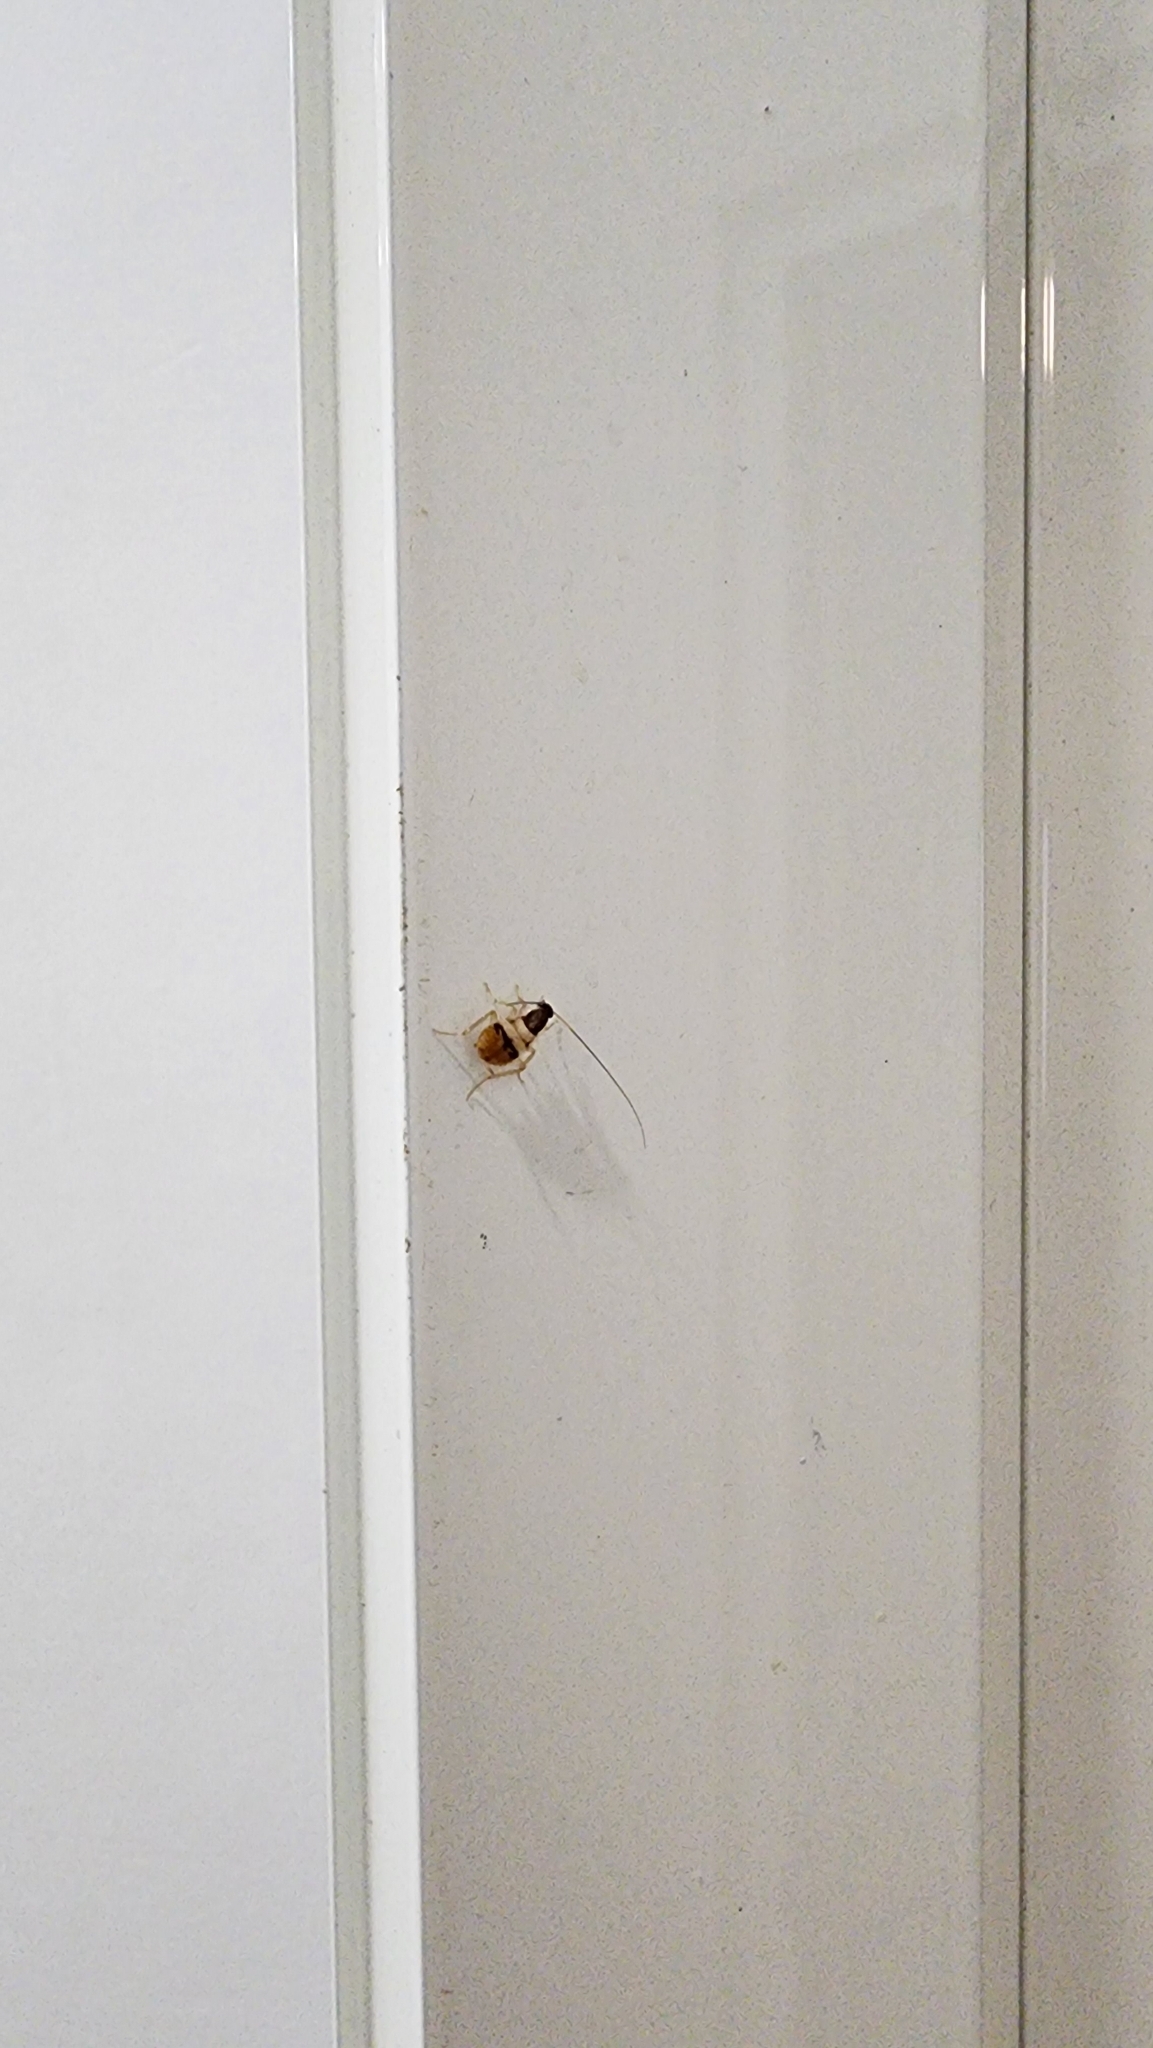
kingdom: Animalia
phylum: Arthropoda
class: Insecta
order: Blattodea
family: Ectobiidae
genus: Supella
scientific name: Supella longipalpa
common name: Brown-banded cockroach
